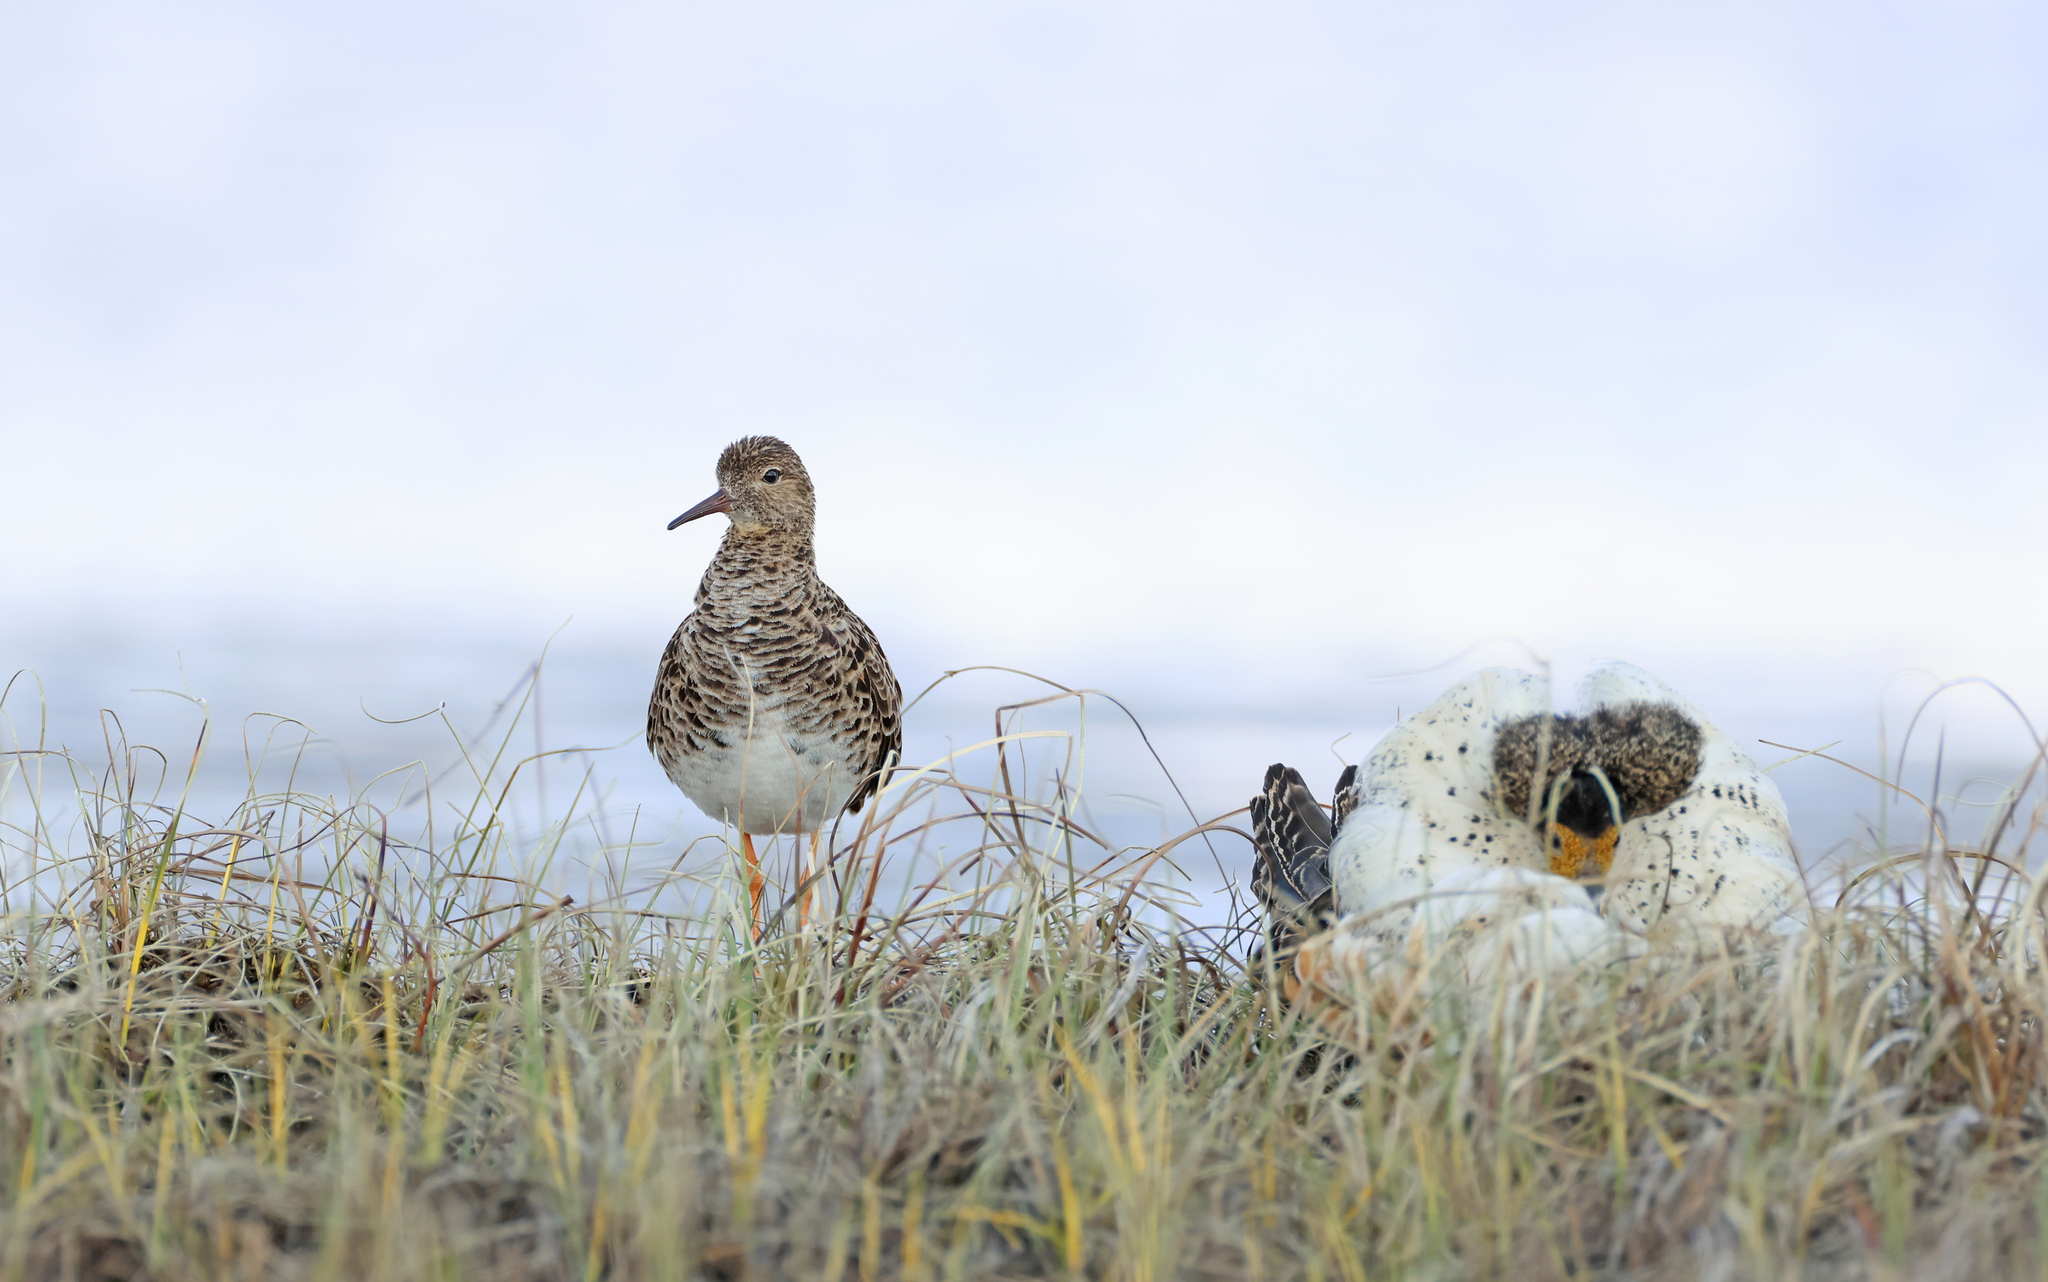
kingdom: Animalia
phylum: Chordata
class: Aves
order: Charadriiformes
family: Scolopacidae
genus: Calidris
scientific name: Calidris pugnax
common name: Ruff
